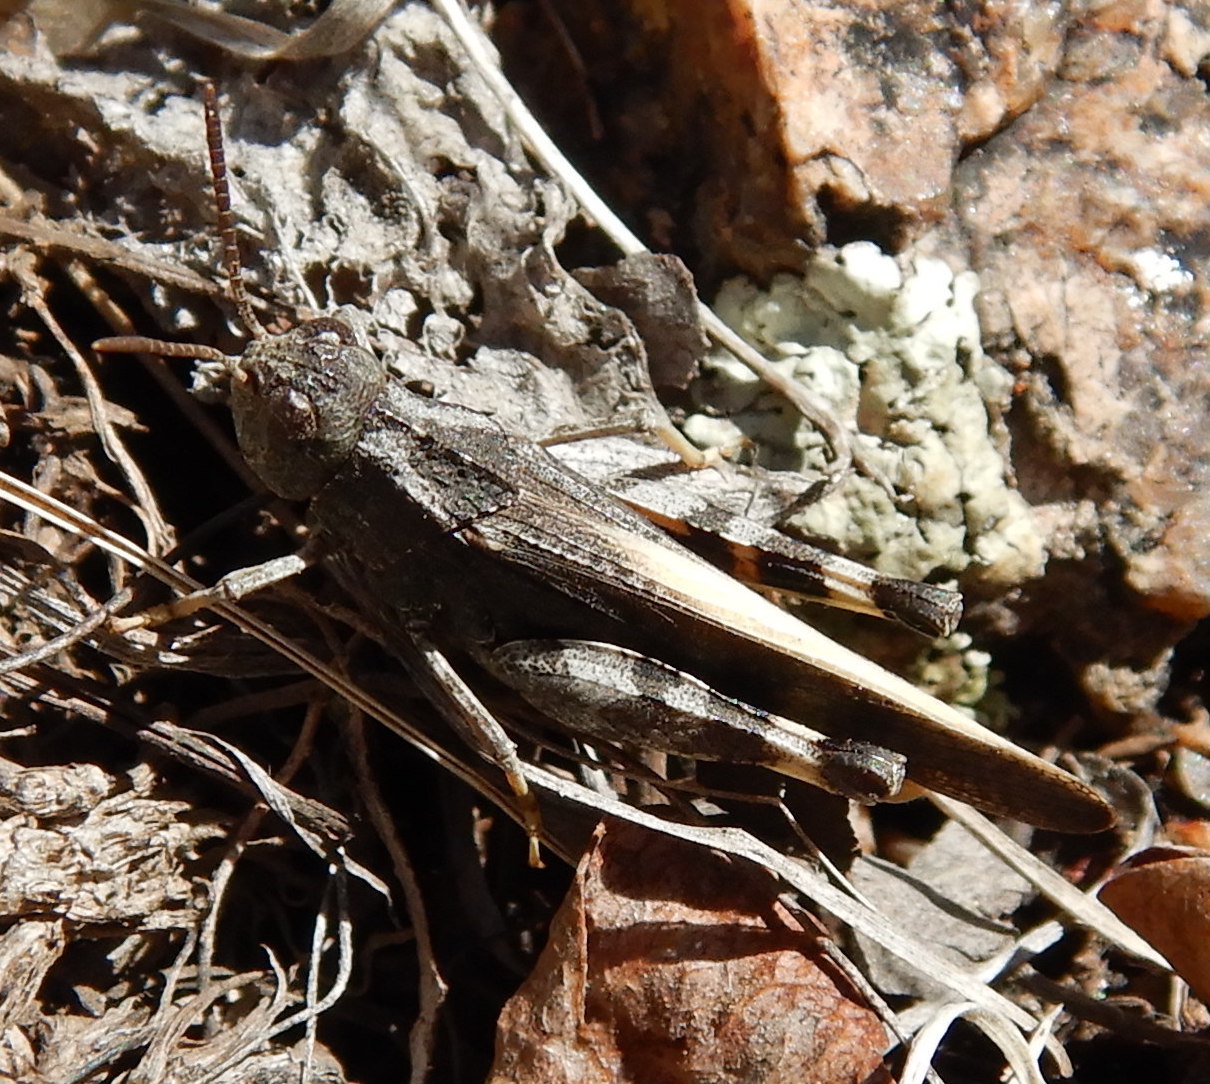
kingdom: Animalia
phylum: Arthropoda
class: Insecta
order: Orthoptera
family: Acrididae
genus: Arphia
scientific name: Arphia conspersa
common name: Speckle-winged rangeland grasshopper
